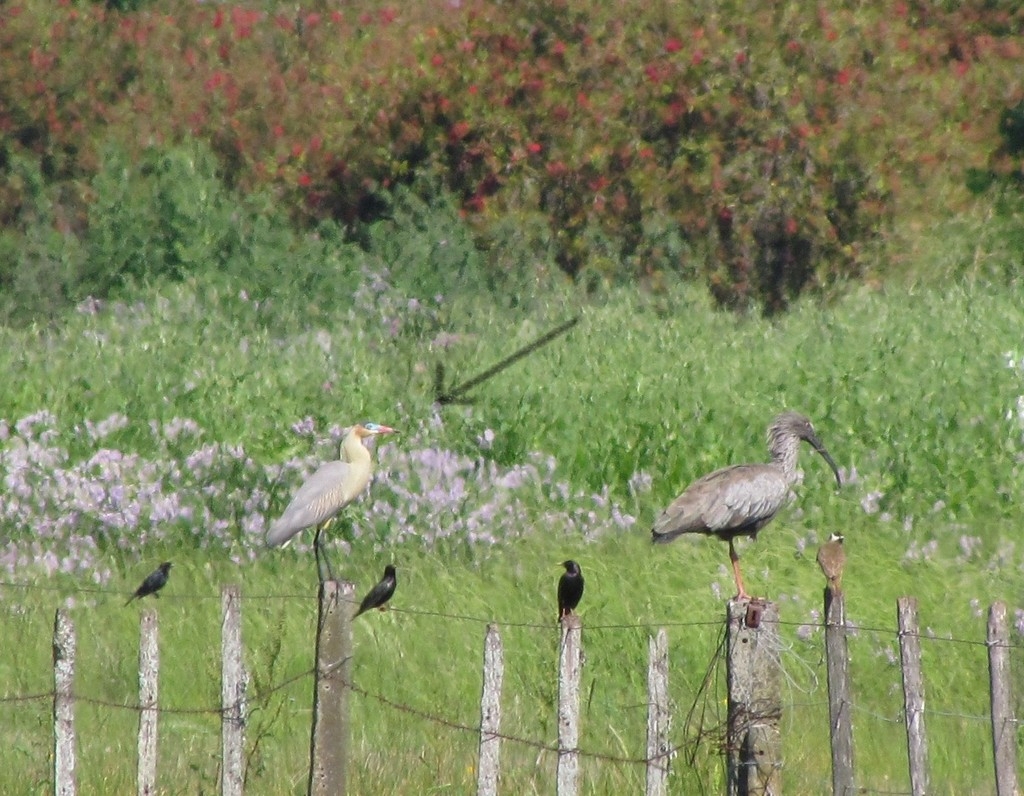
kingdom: Animalia
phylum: Chordata
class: Aves
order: Pelecaniformes
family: Ardeidae
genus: Syrigma
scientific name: Syrigma sibilatrix
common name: Whistling heron
